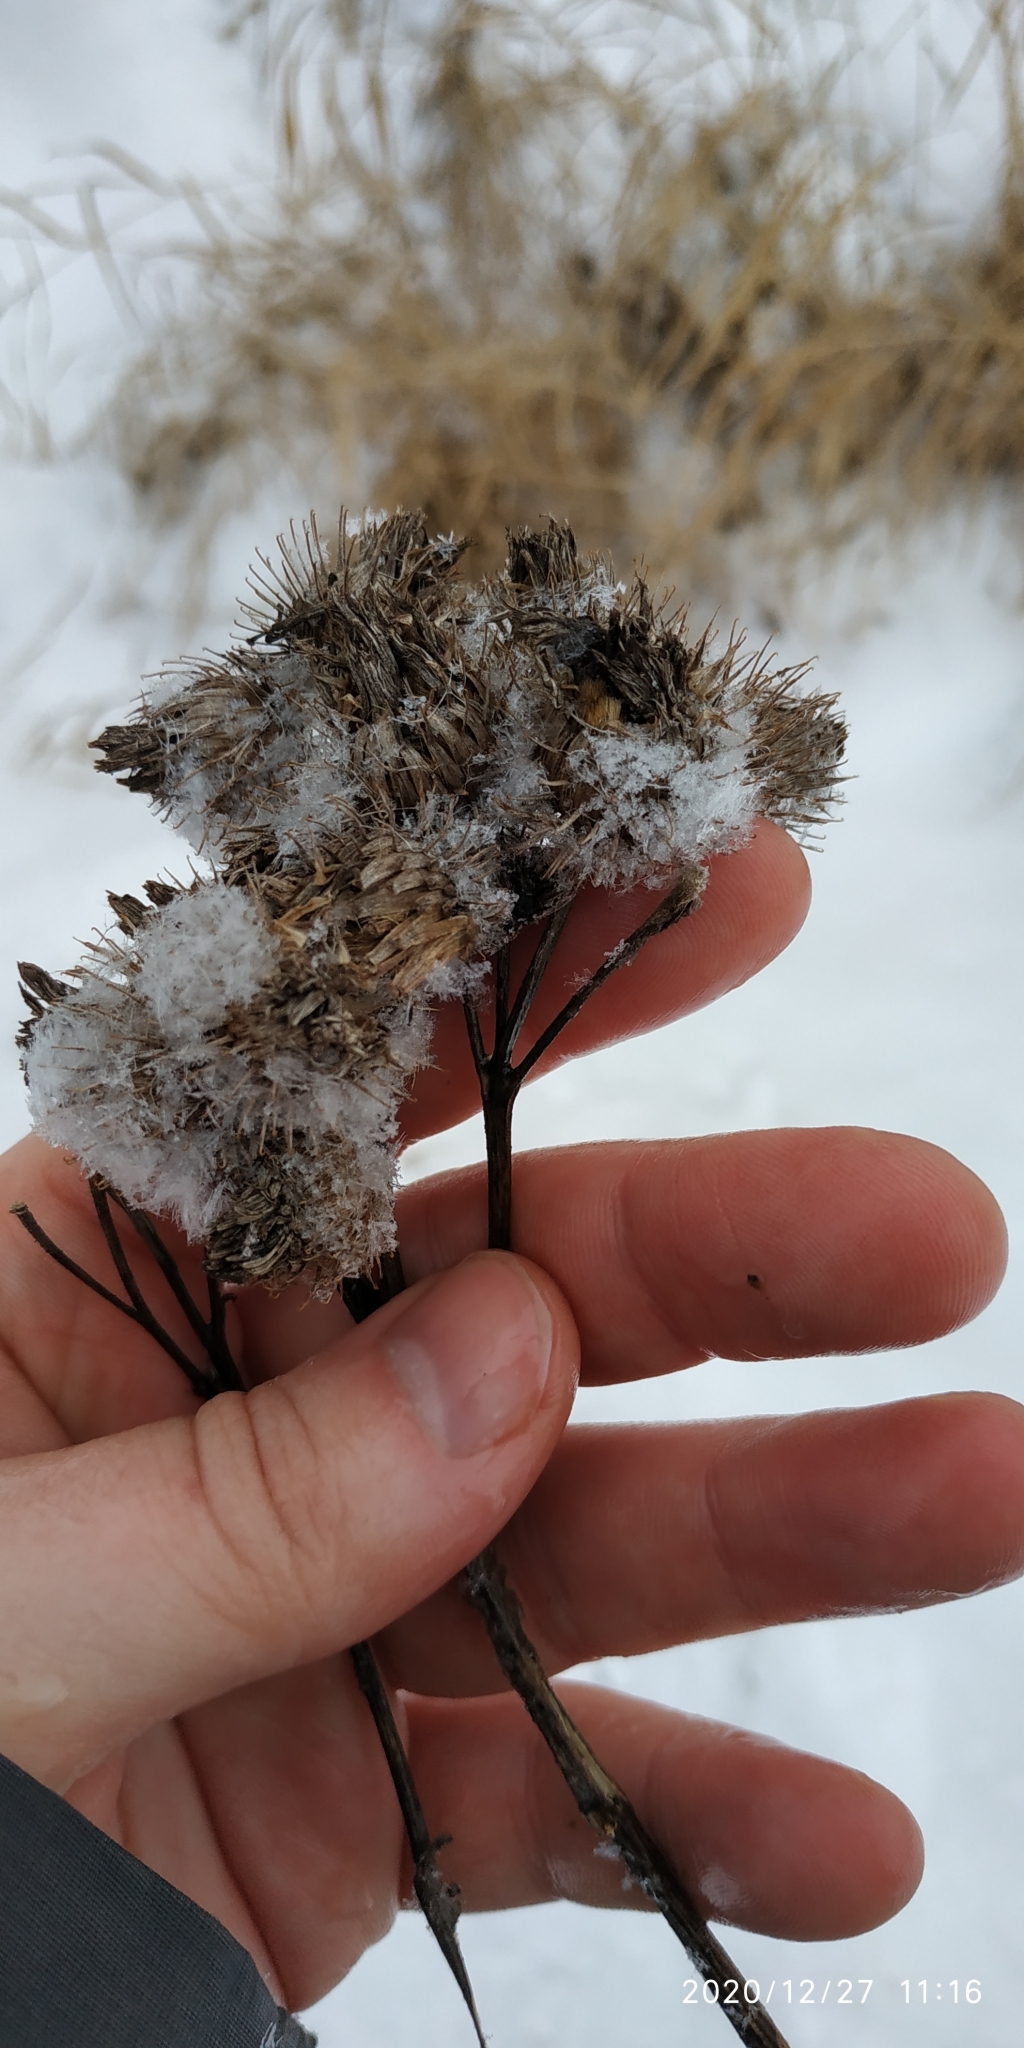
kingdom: Plantae
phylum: Tracheophyta
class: Magnoliopsida
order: Asterales
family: Asteraceae
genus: Arctium
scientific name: Arctium tomentosum
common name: Woolly burdock
